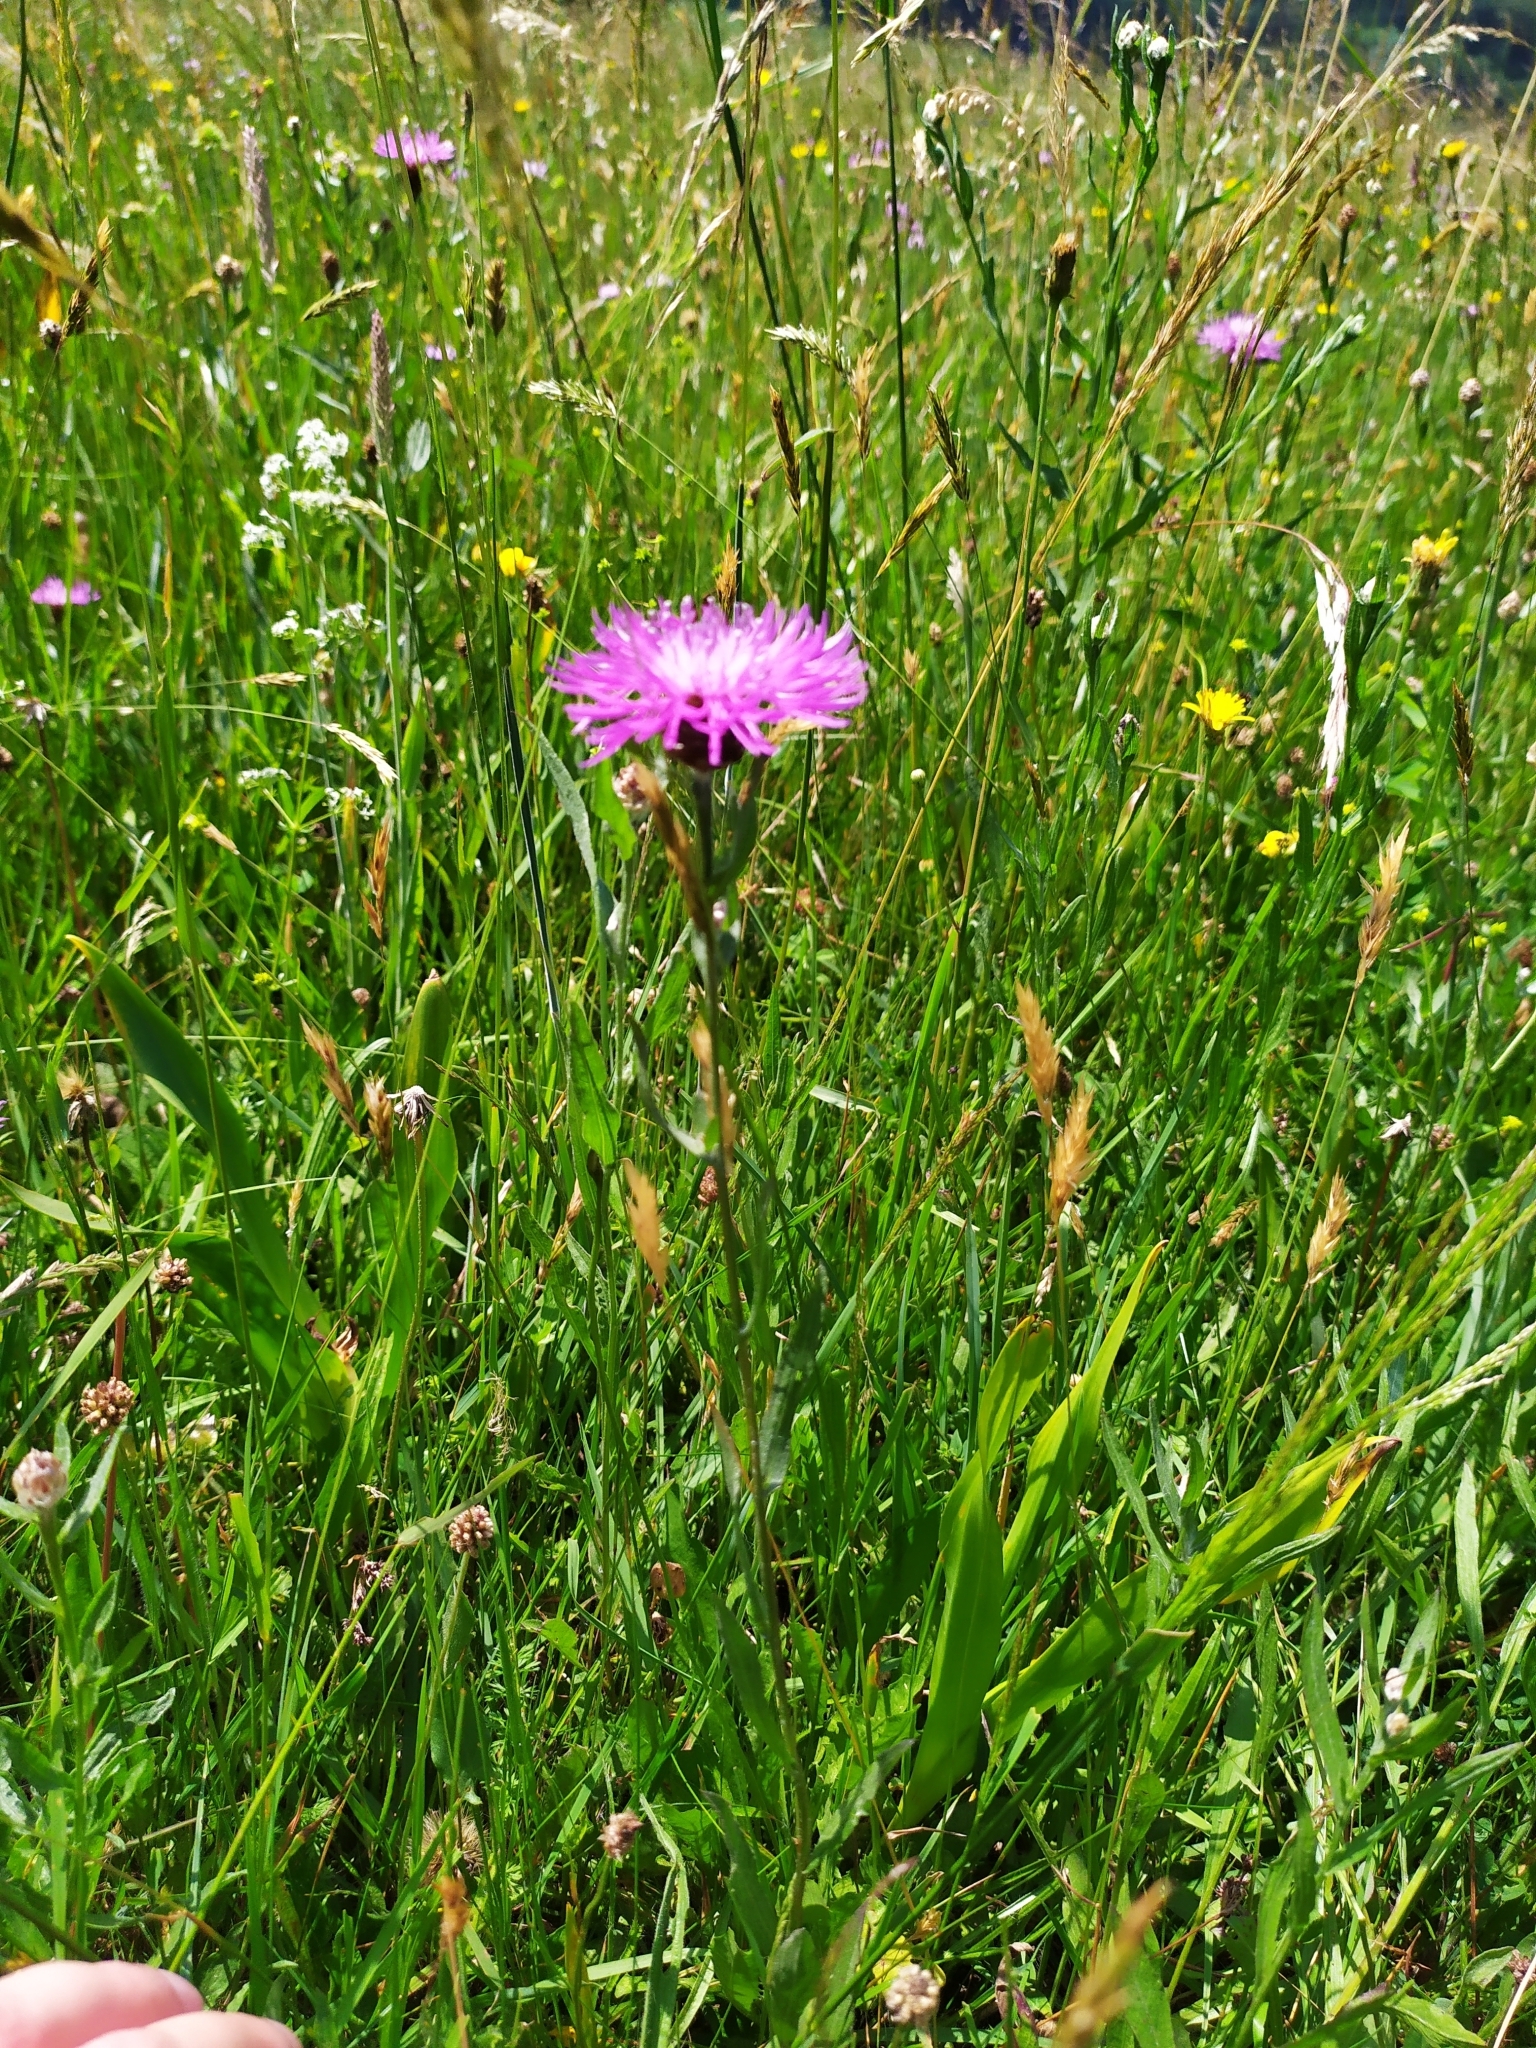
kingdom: Plantae
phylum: Tracheophyta
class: Magnoliopsida
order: Asterales
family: Asteraceae
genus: Centaurea
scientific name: Centaurea jacea
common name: Brown knapweed
